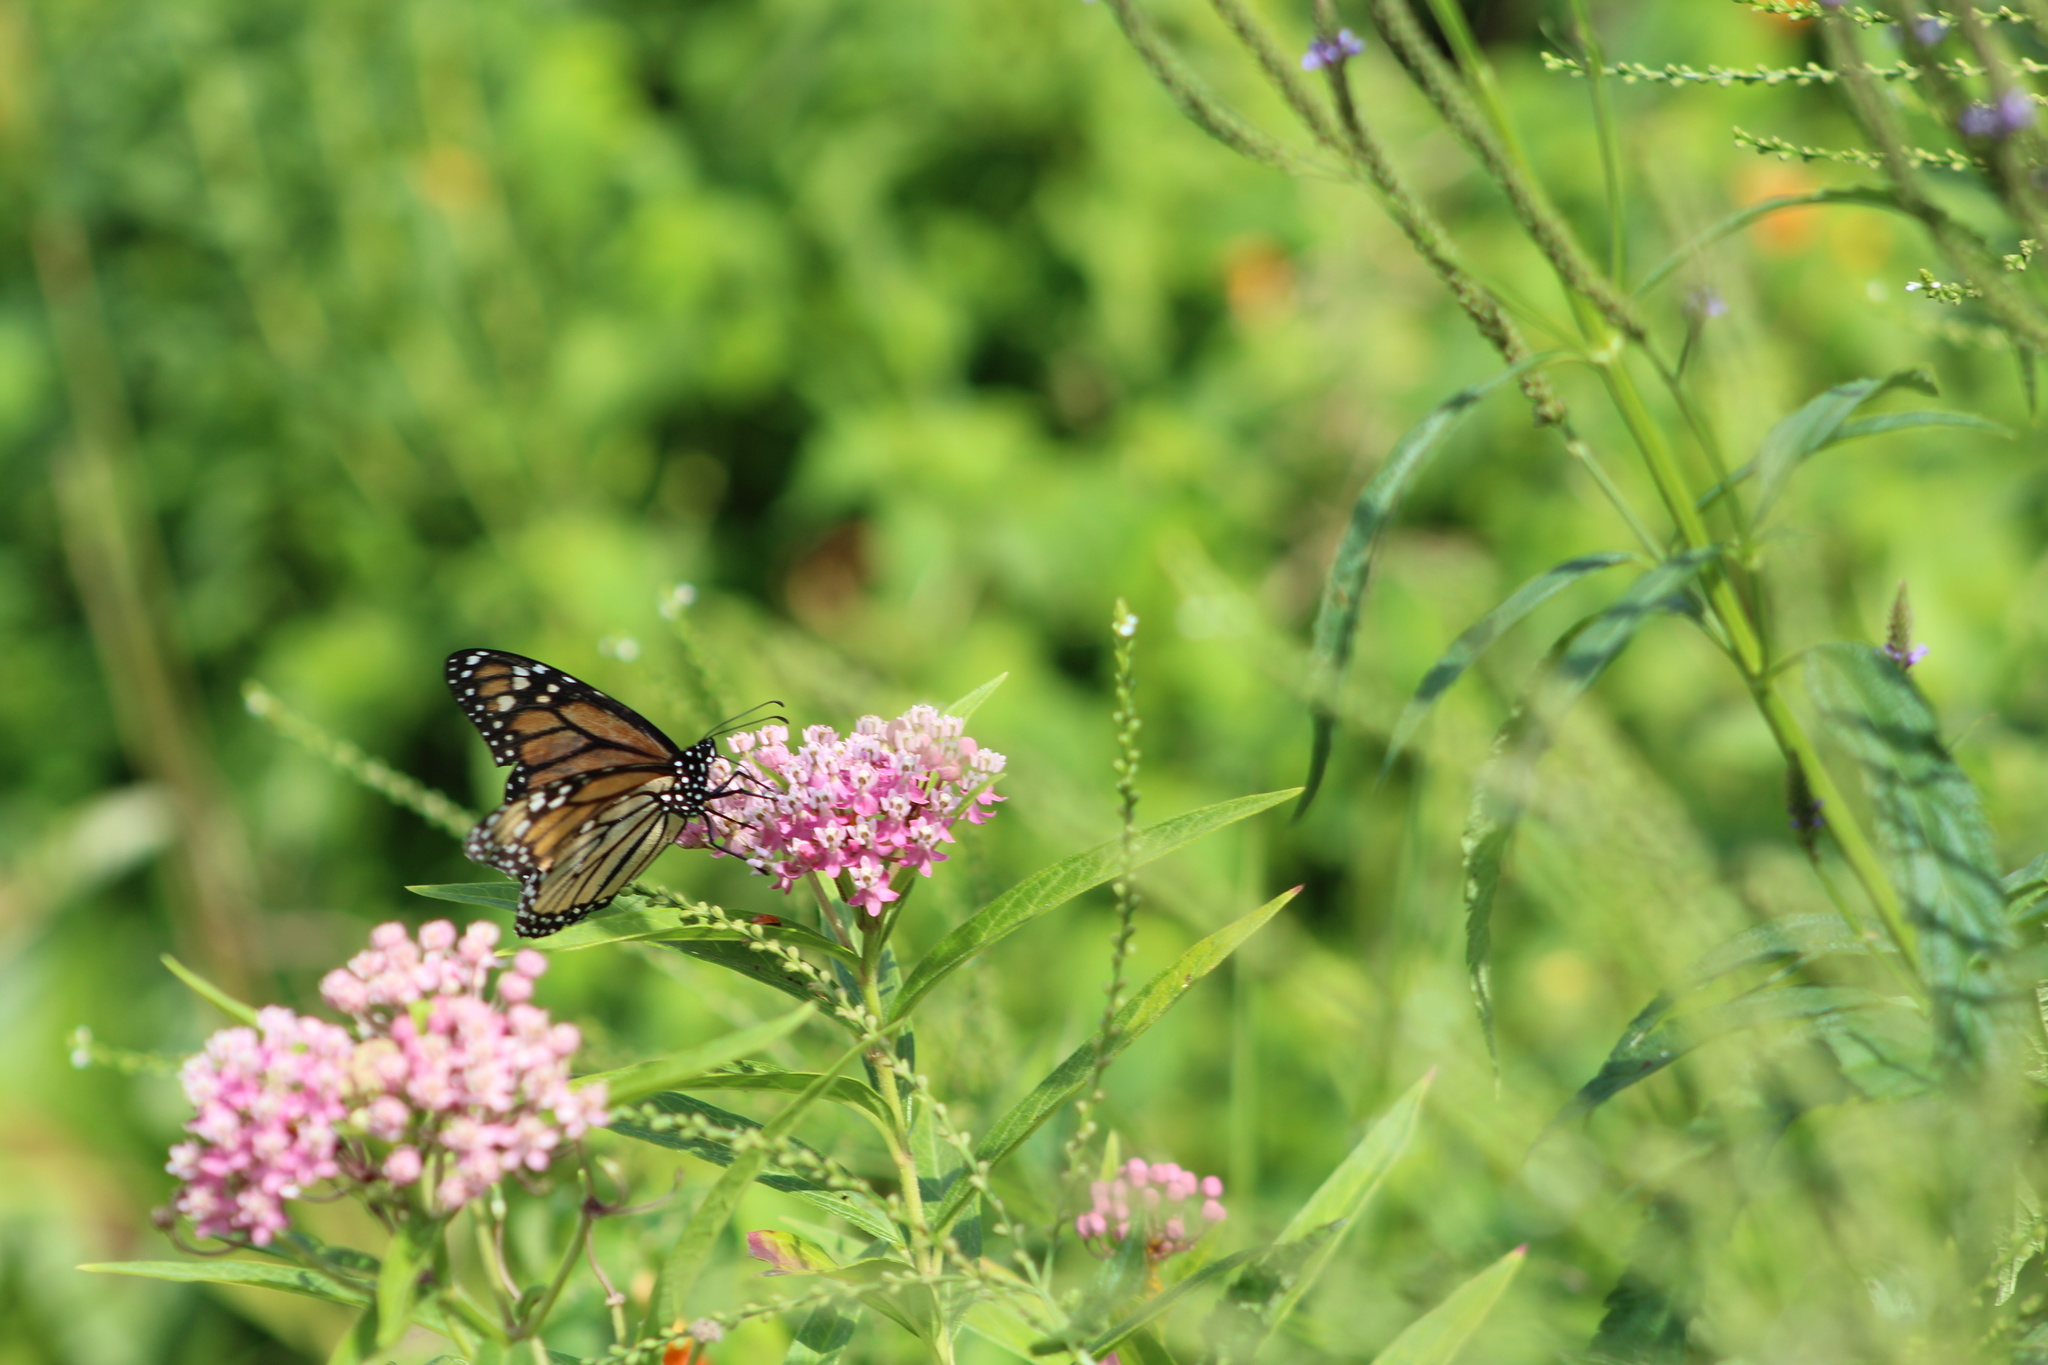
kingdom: Animalia
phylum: Arthropoda
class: Insecta
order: Lepidoptera
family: Nymphalidae
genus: Danaus
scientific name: Danaus plexippus
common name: Monarch
